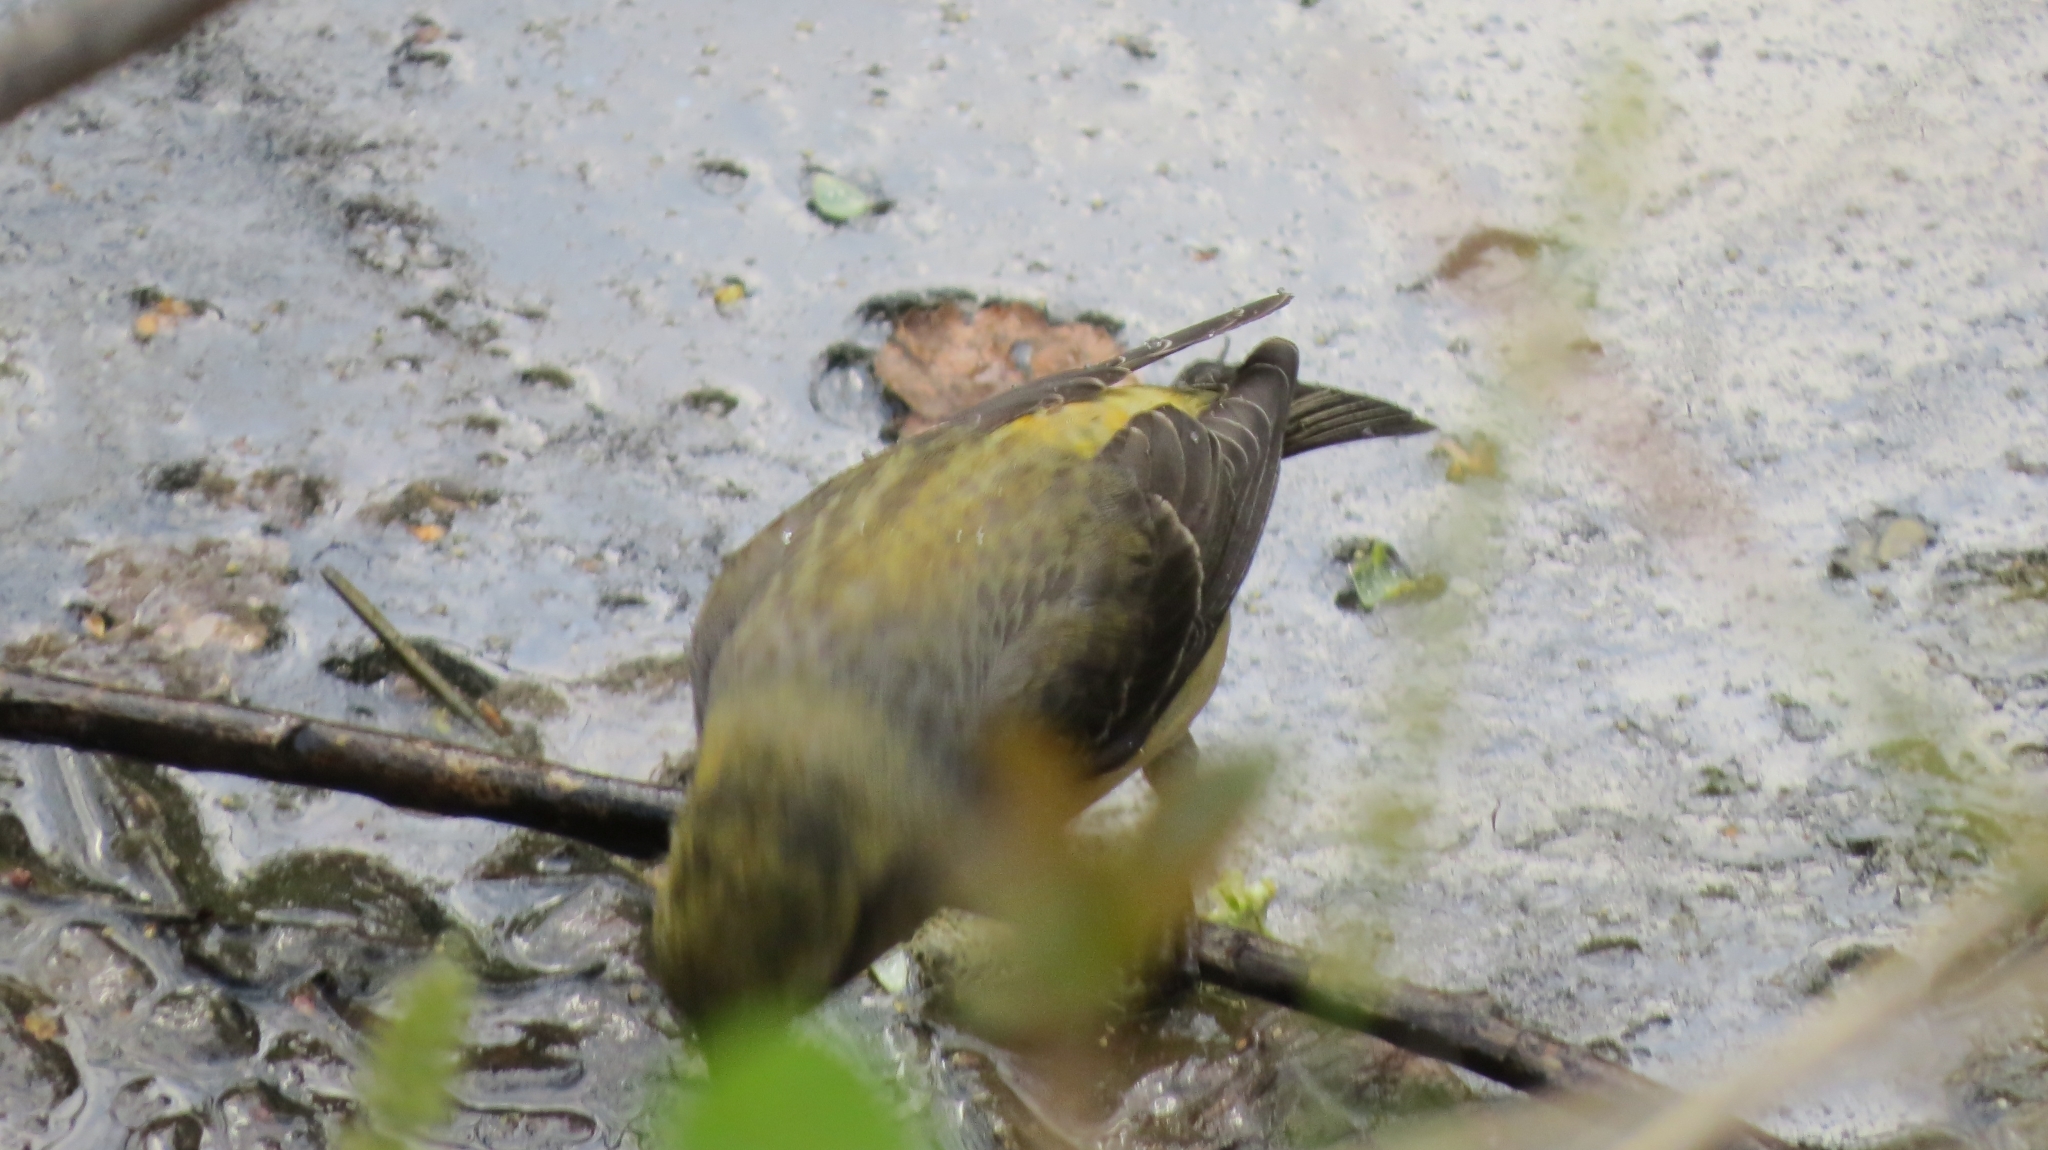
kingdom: Animalia
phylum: Chordata
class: Aves
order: Passeriformes
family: Fringillidae
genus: Loxia
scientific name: Loxia curvirostra
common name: Red crossbill
